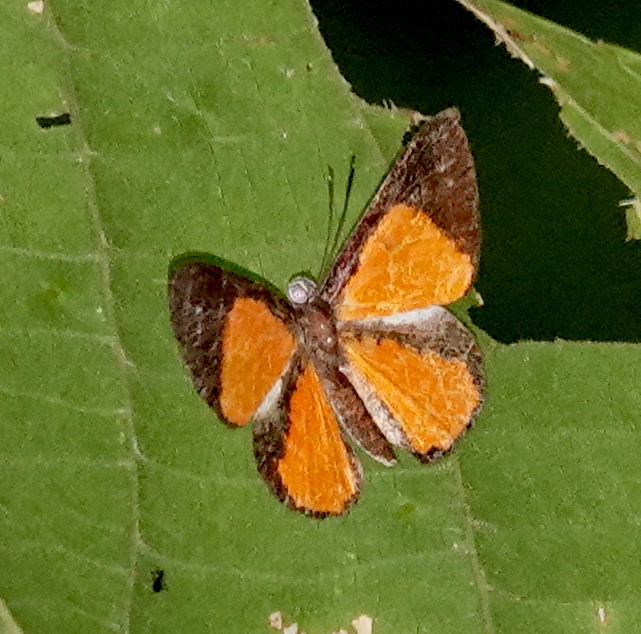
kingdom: Animalia
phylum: Arthropoda
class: Insecta
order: Lepidoptera
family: Riodinidae
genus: Polystichtis
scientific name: Polystichtis rhodope
